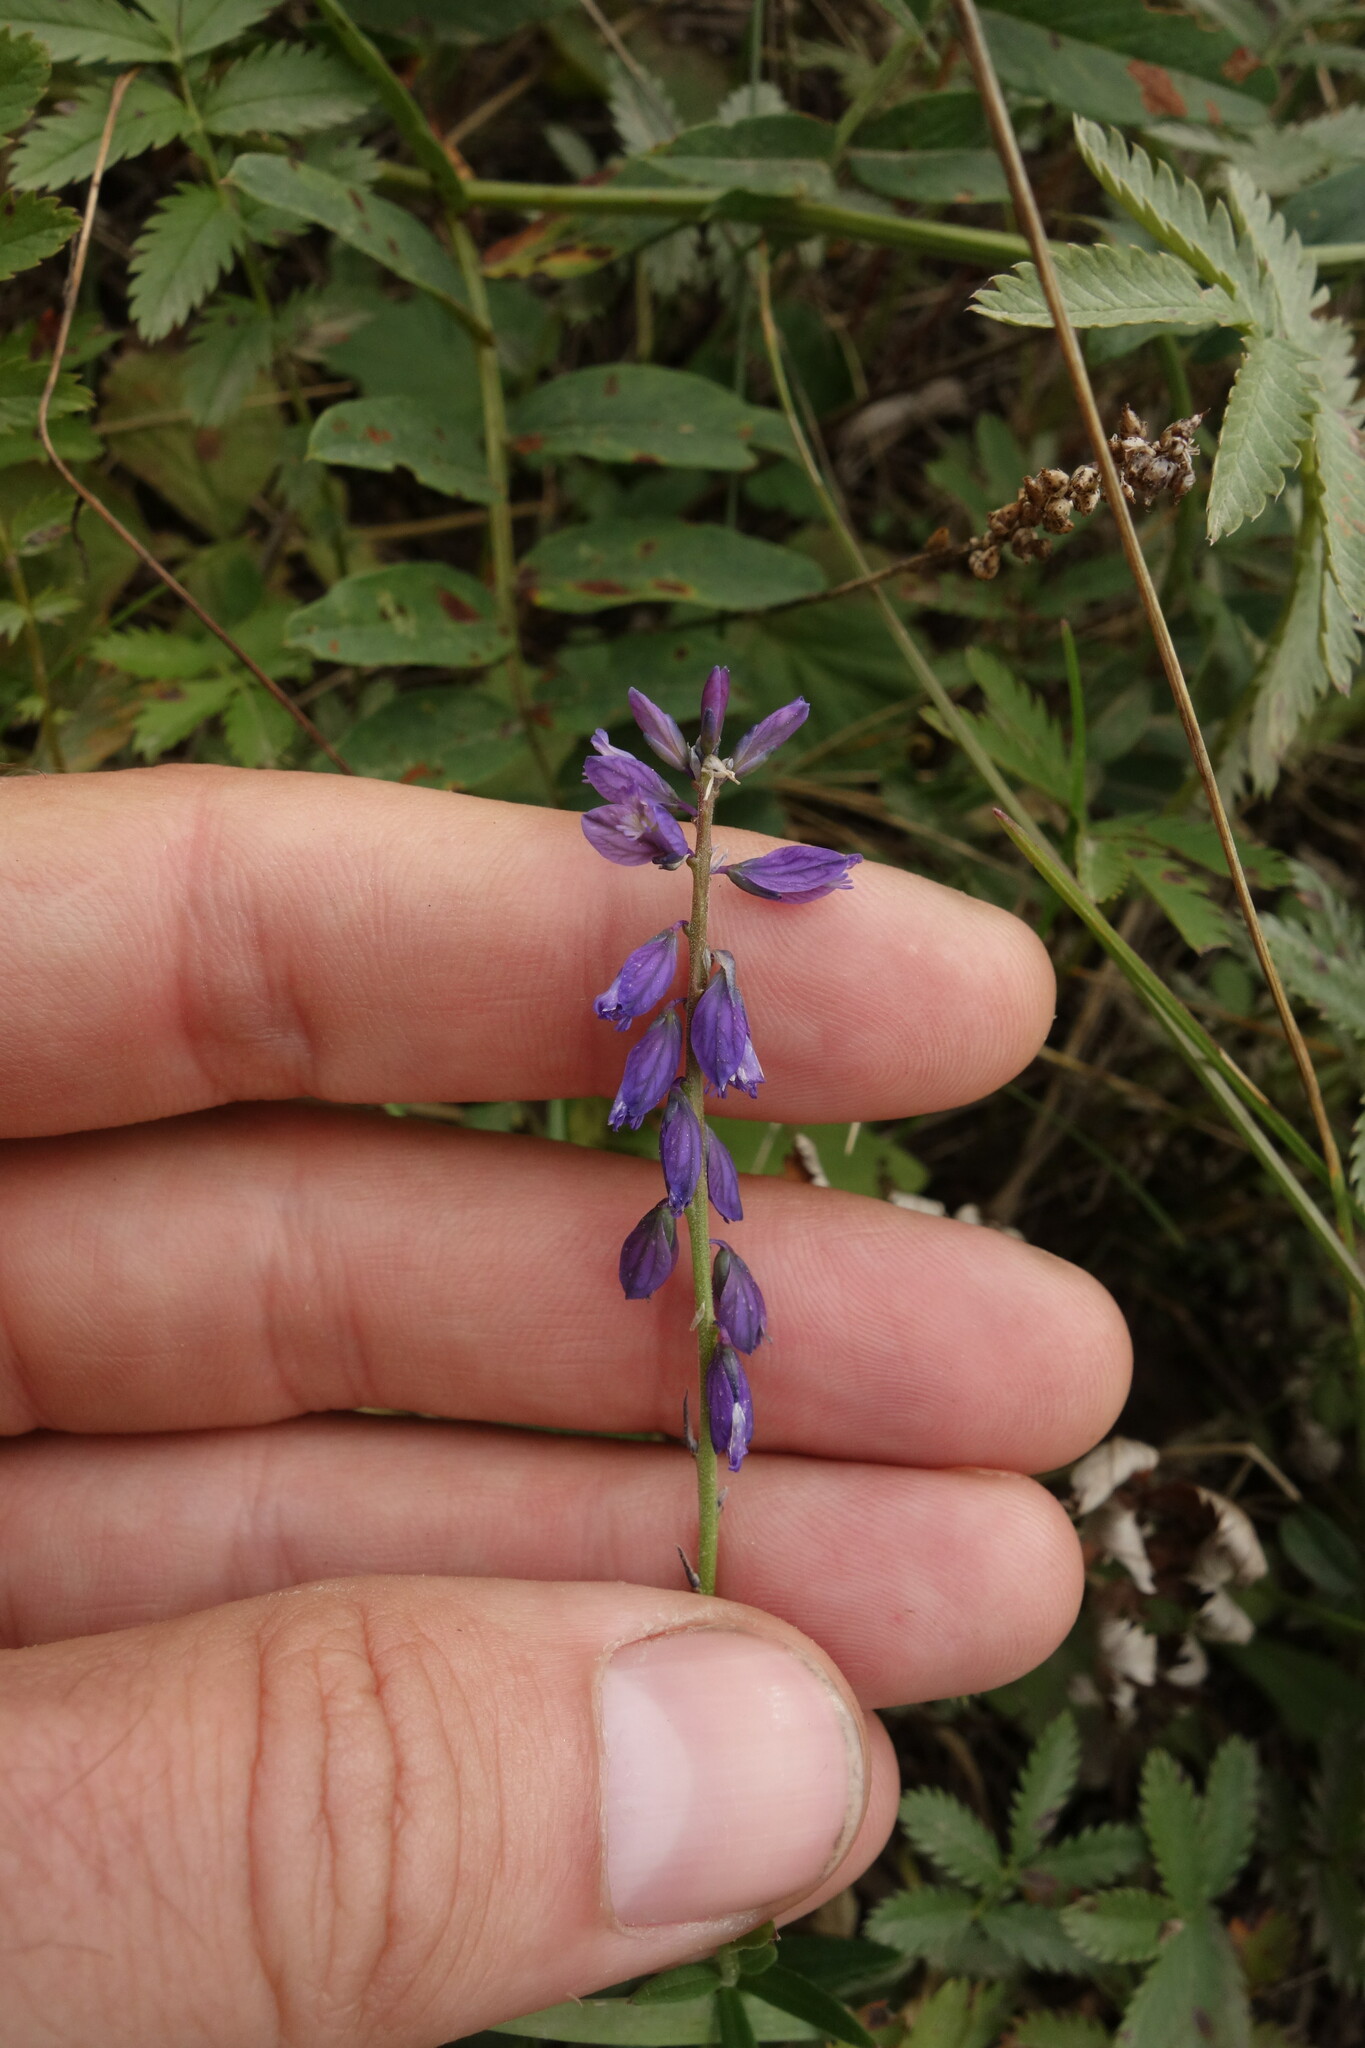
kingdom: Plantae
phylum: Tracheophyta
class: Magnoliopsida
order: Fabales
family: Polygalaceae
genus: Polygala
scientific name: Polygala comosa
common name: Tufted milkwort
